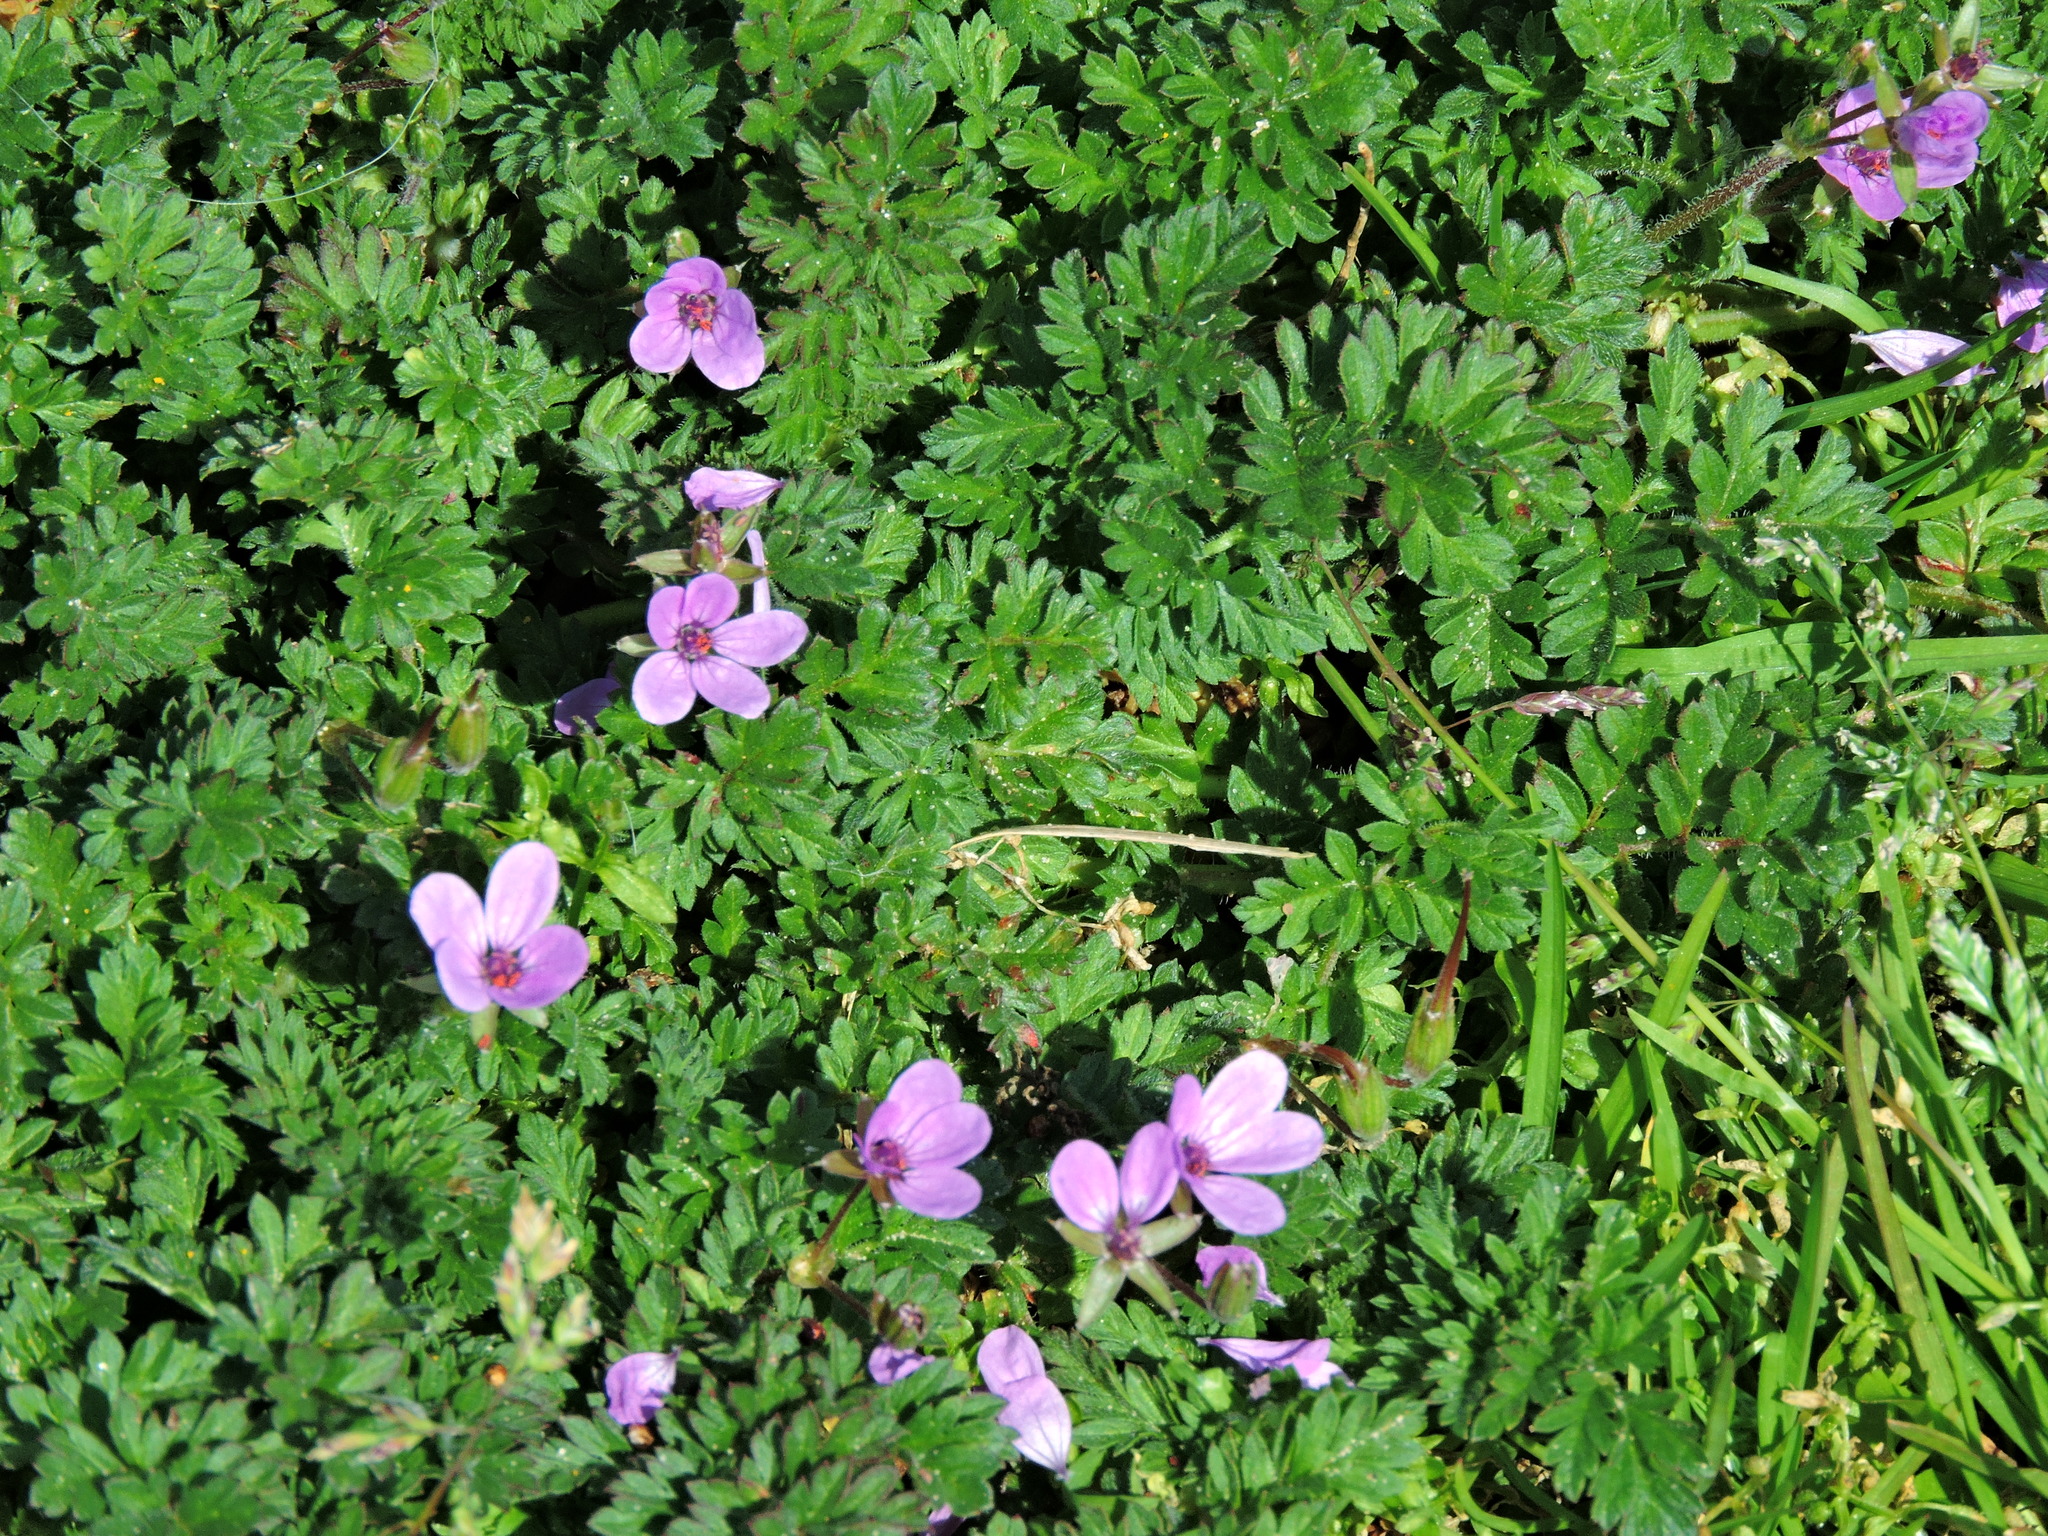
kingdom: Plantae
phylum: Tracheophyta
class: Magnoliopsida
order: Geraniales
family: Geraniaceae
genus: Erodium
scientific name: Erodium cicutarium
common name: Common stork's-bill
